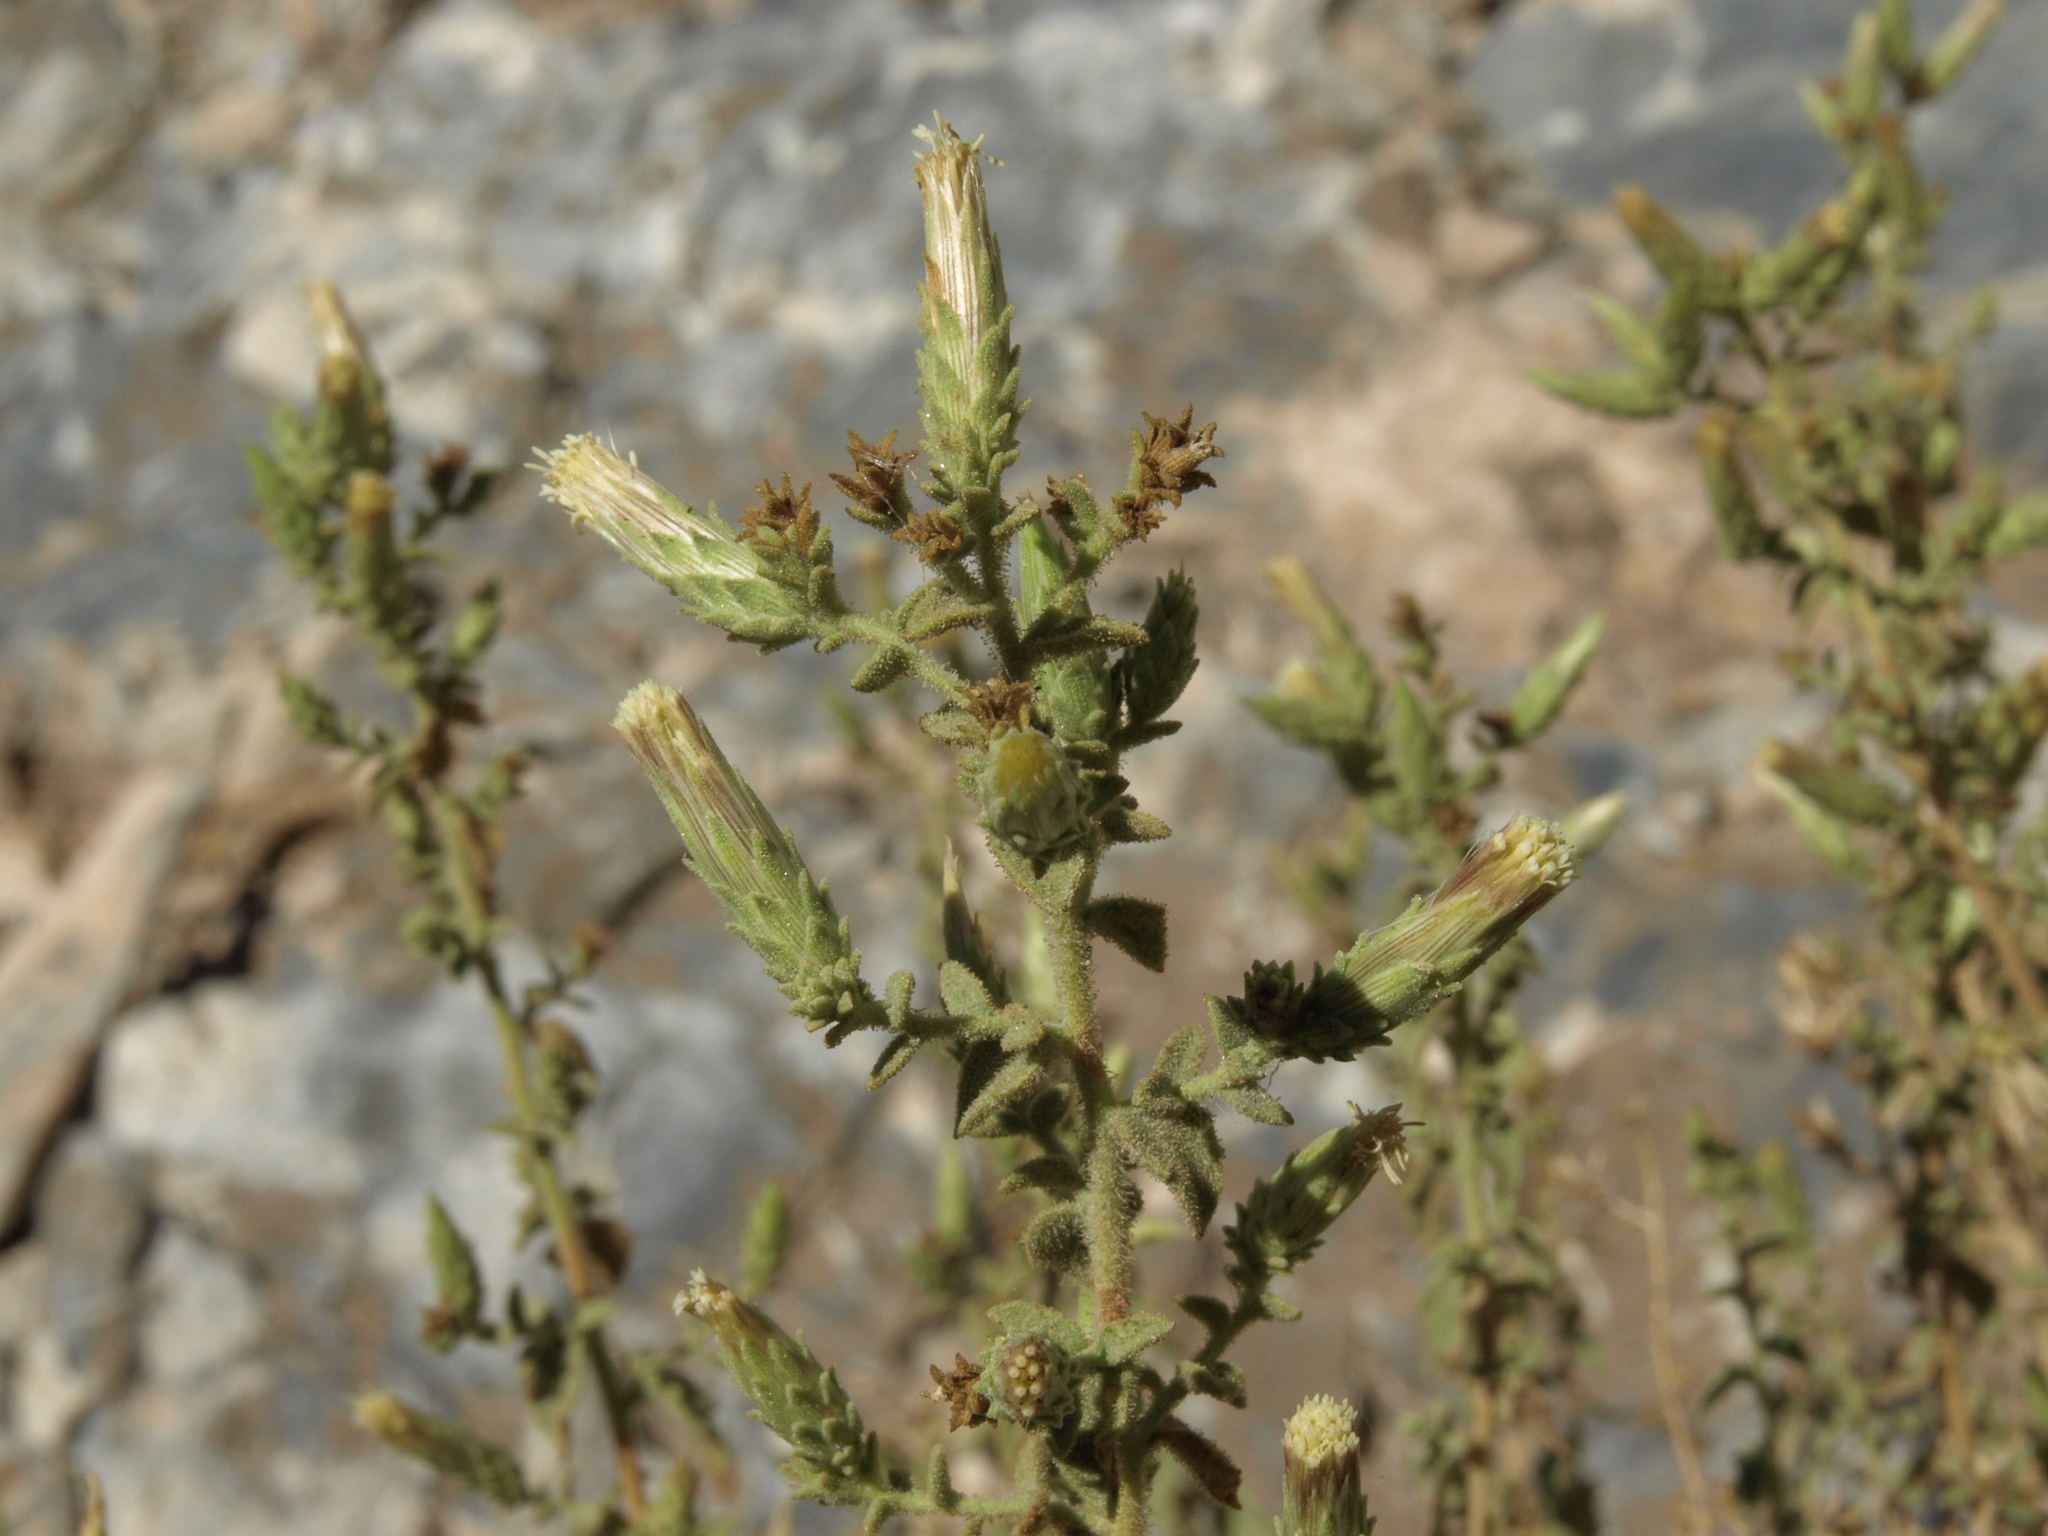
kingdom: Plantae
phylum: Tracheophyta
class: Magnoliopsida
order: Asterales
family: Asteraceae
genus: Brickellia
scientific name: Brickellia microphylla
